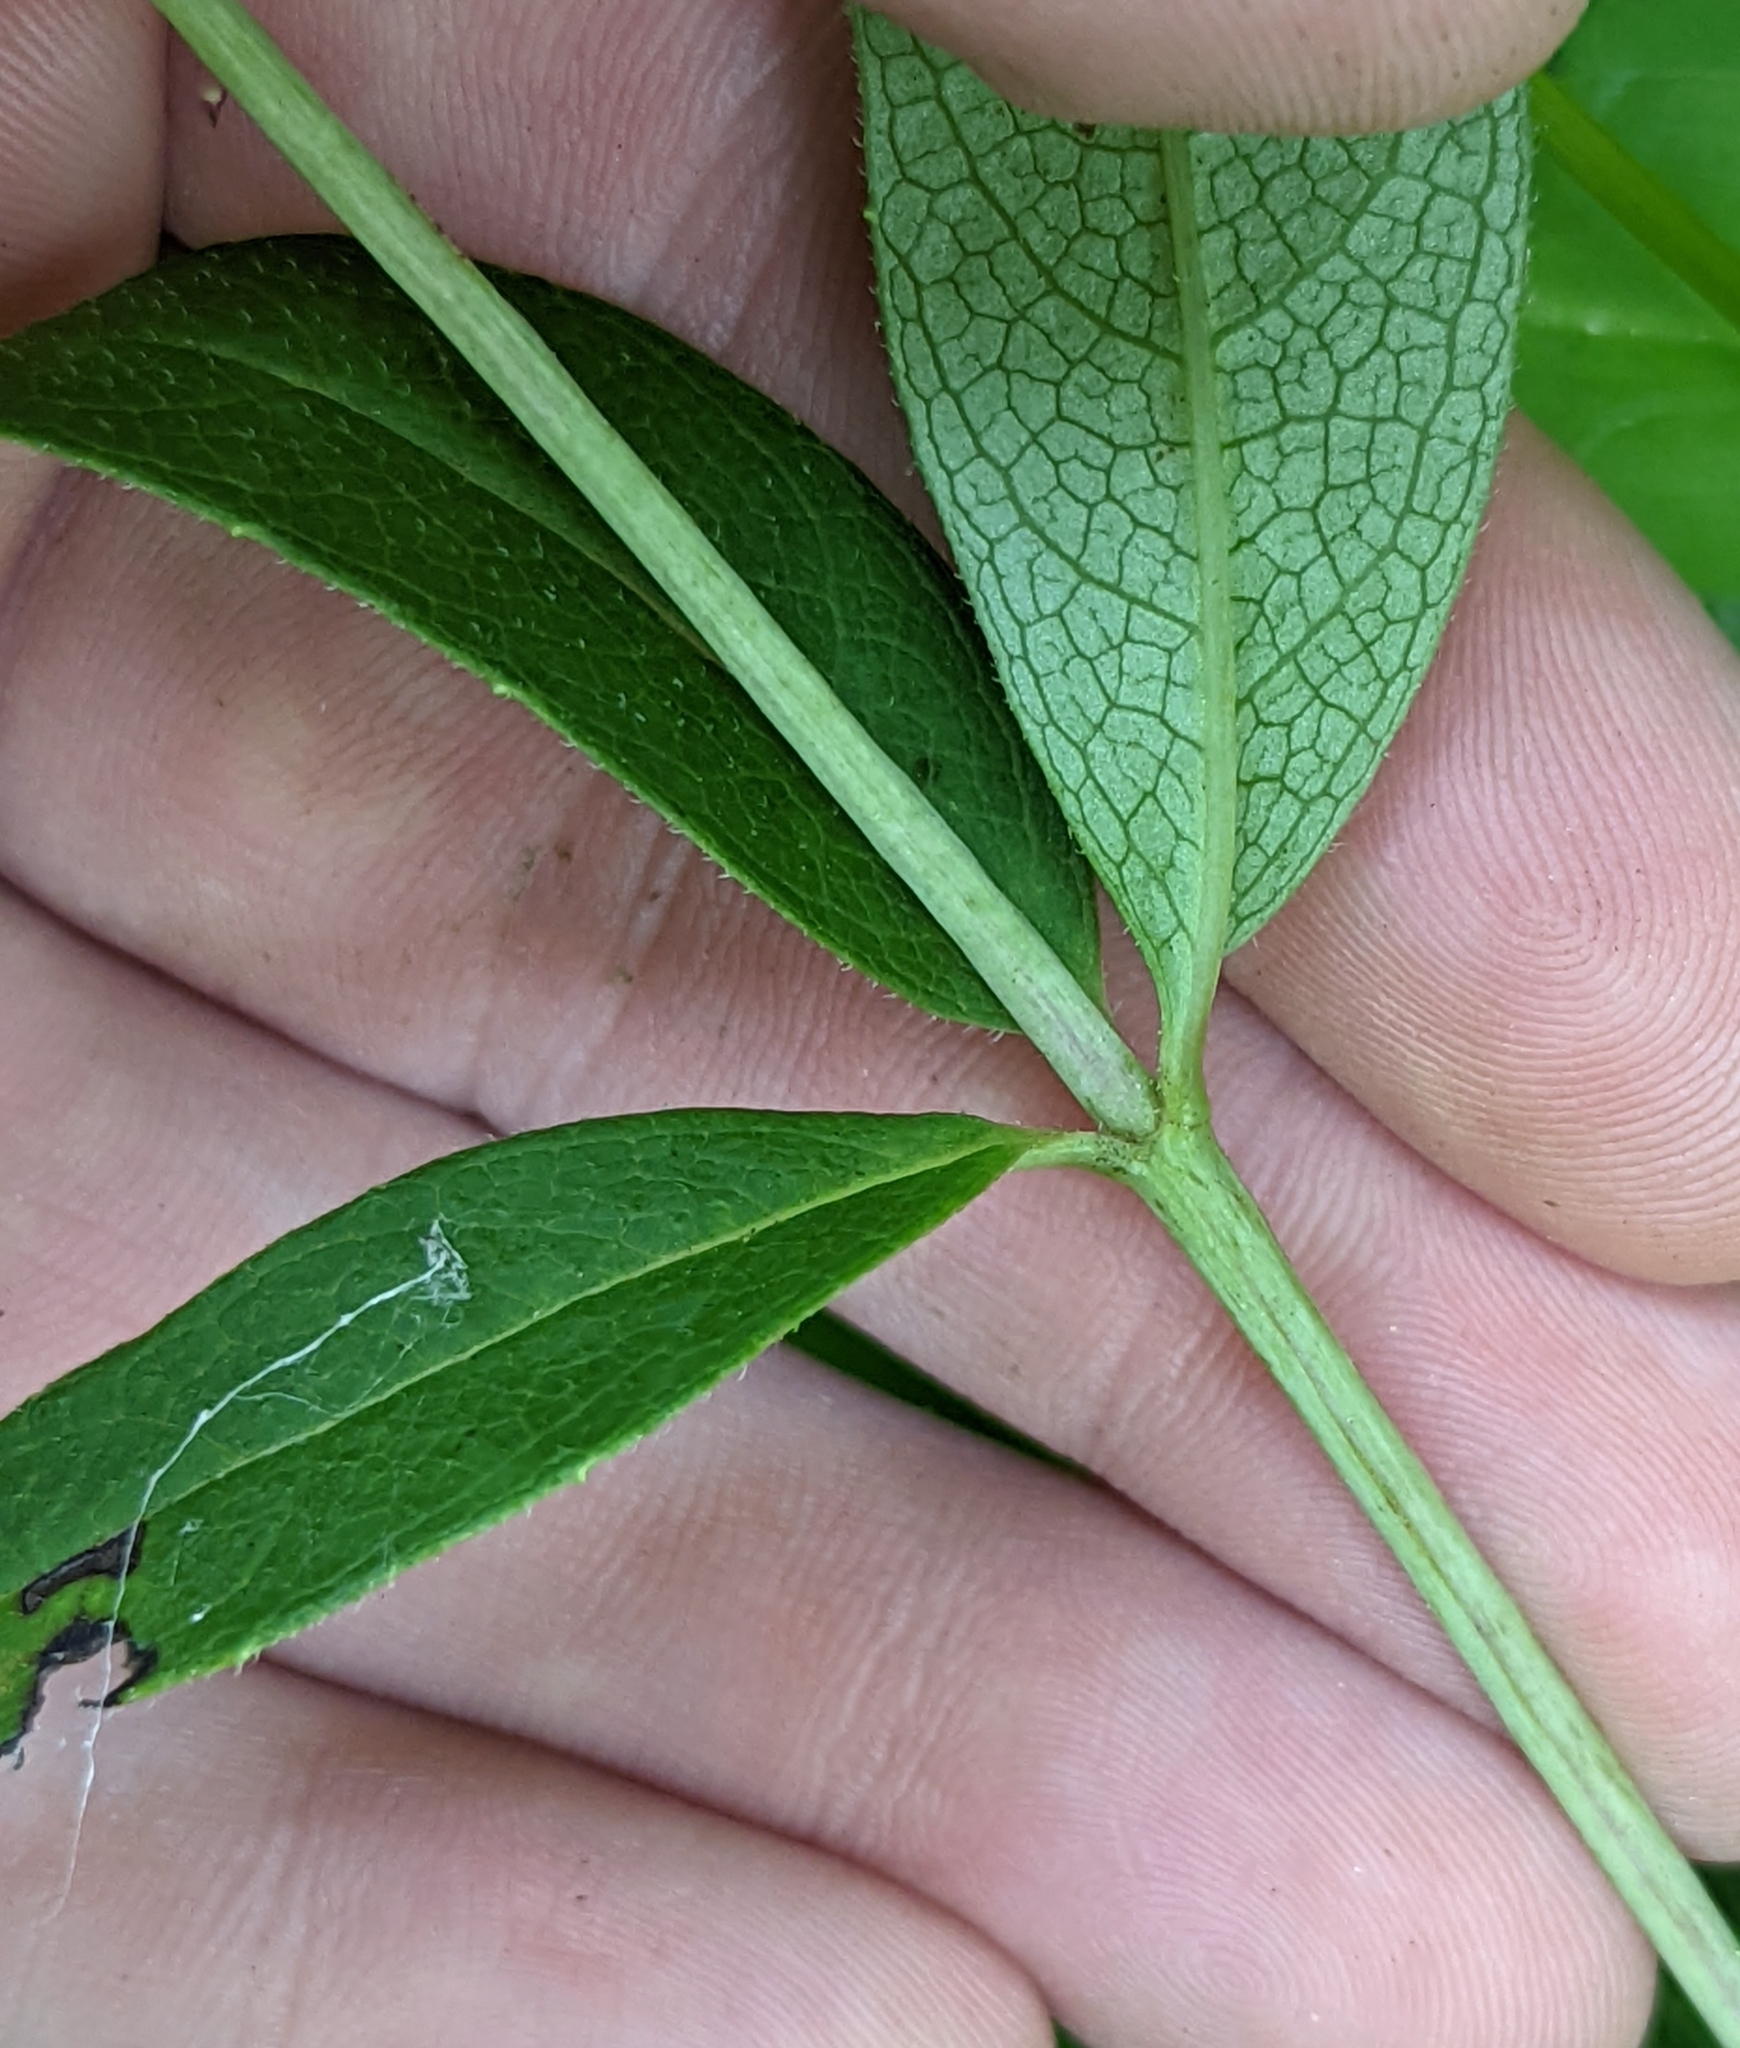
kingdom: Plantae
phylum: Tracheophyta
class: Magnoliopsida
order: Asterales
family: Asteraceae
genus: Silphium
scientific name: Silphium asteriscus
